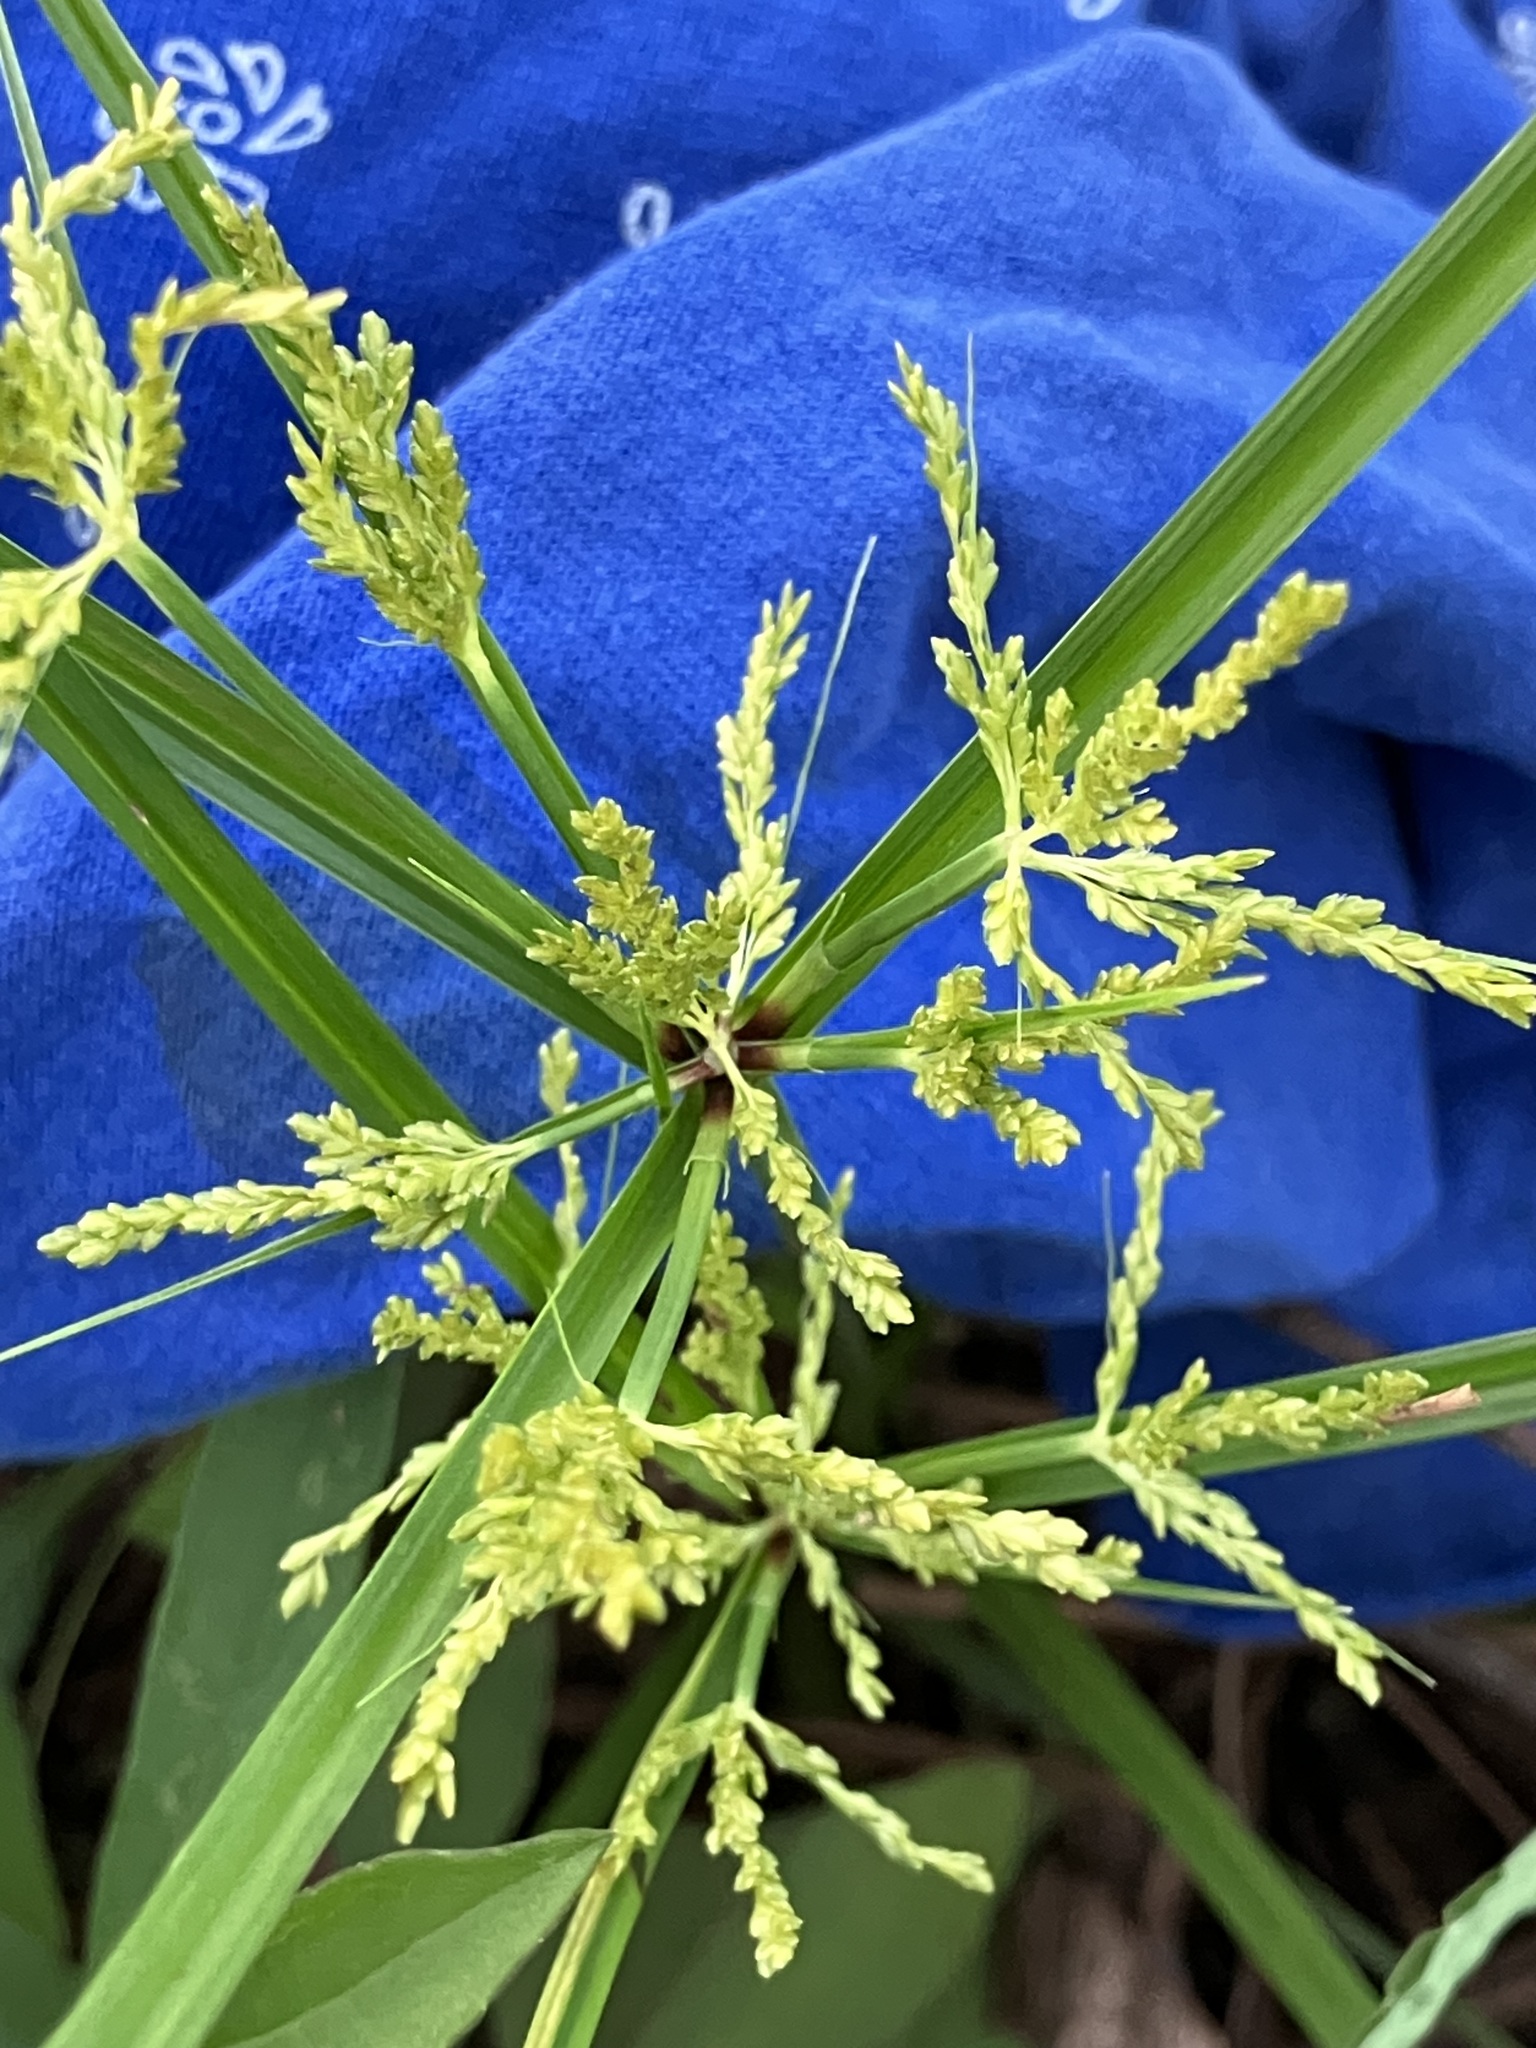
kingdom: Plantae
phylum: Tracheophyta
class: Liliopsida
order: Poales
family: Cyperaceae
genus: Cyperus
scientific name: Cyperus iria
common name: Ricefield flatsedge
